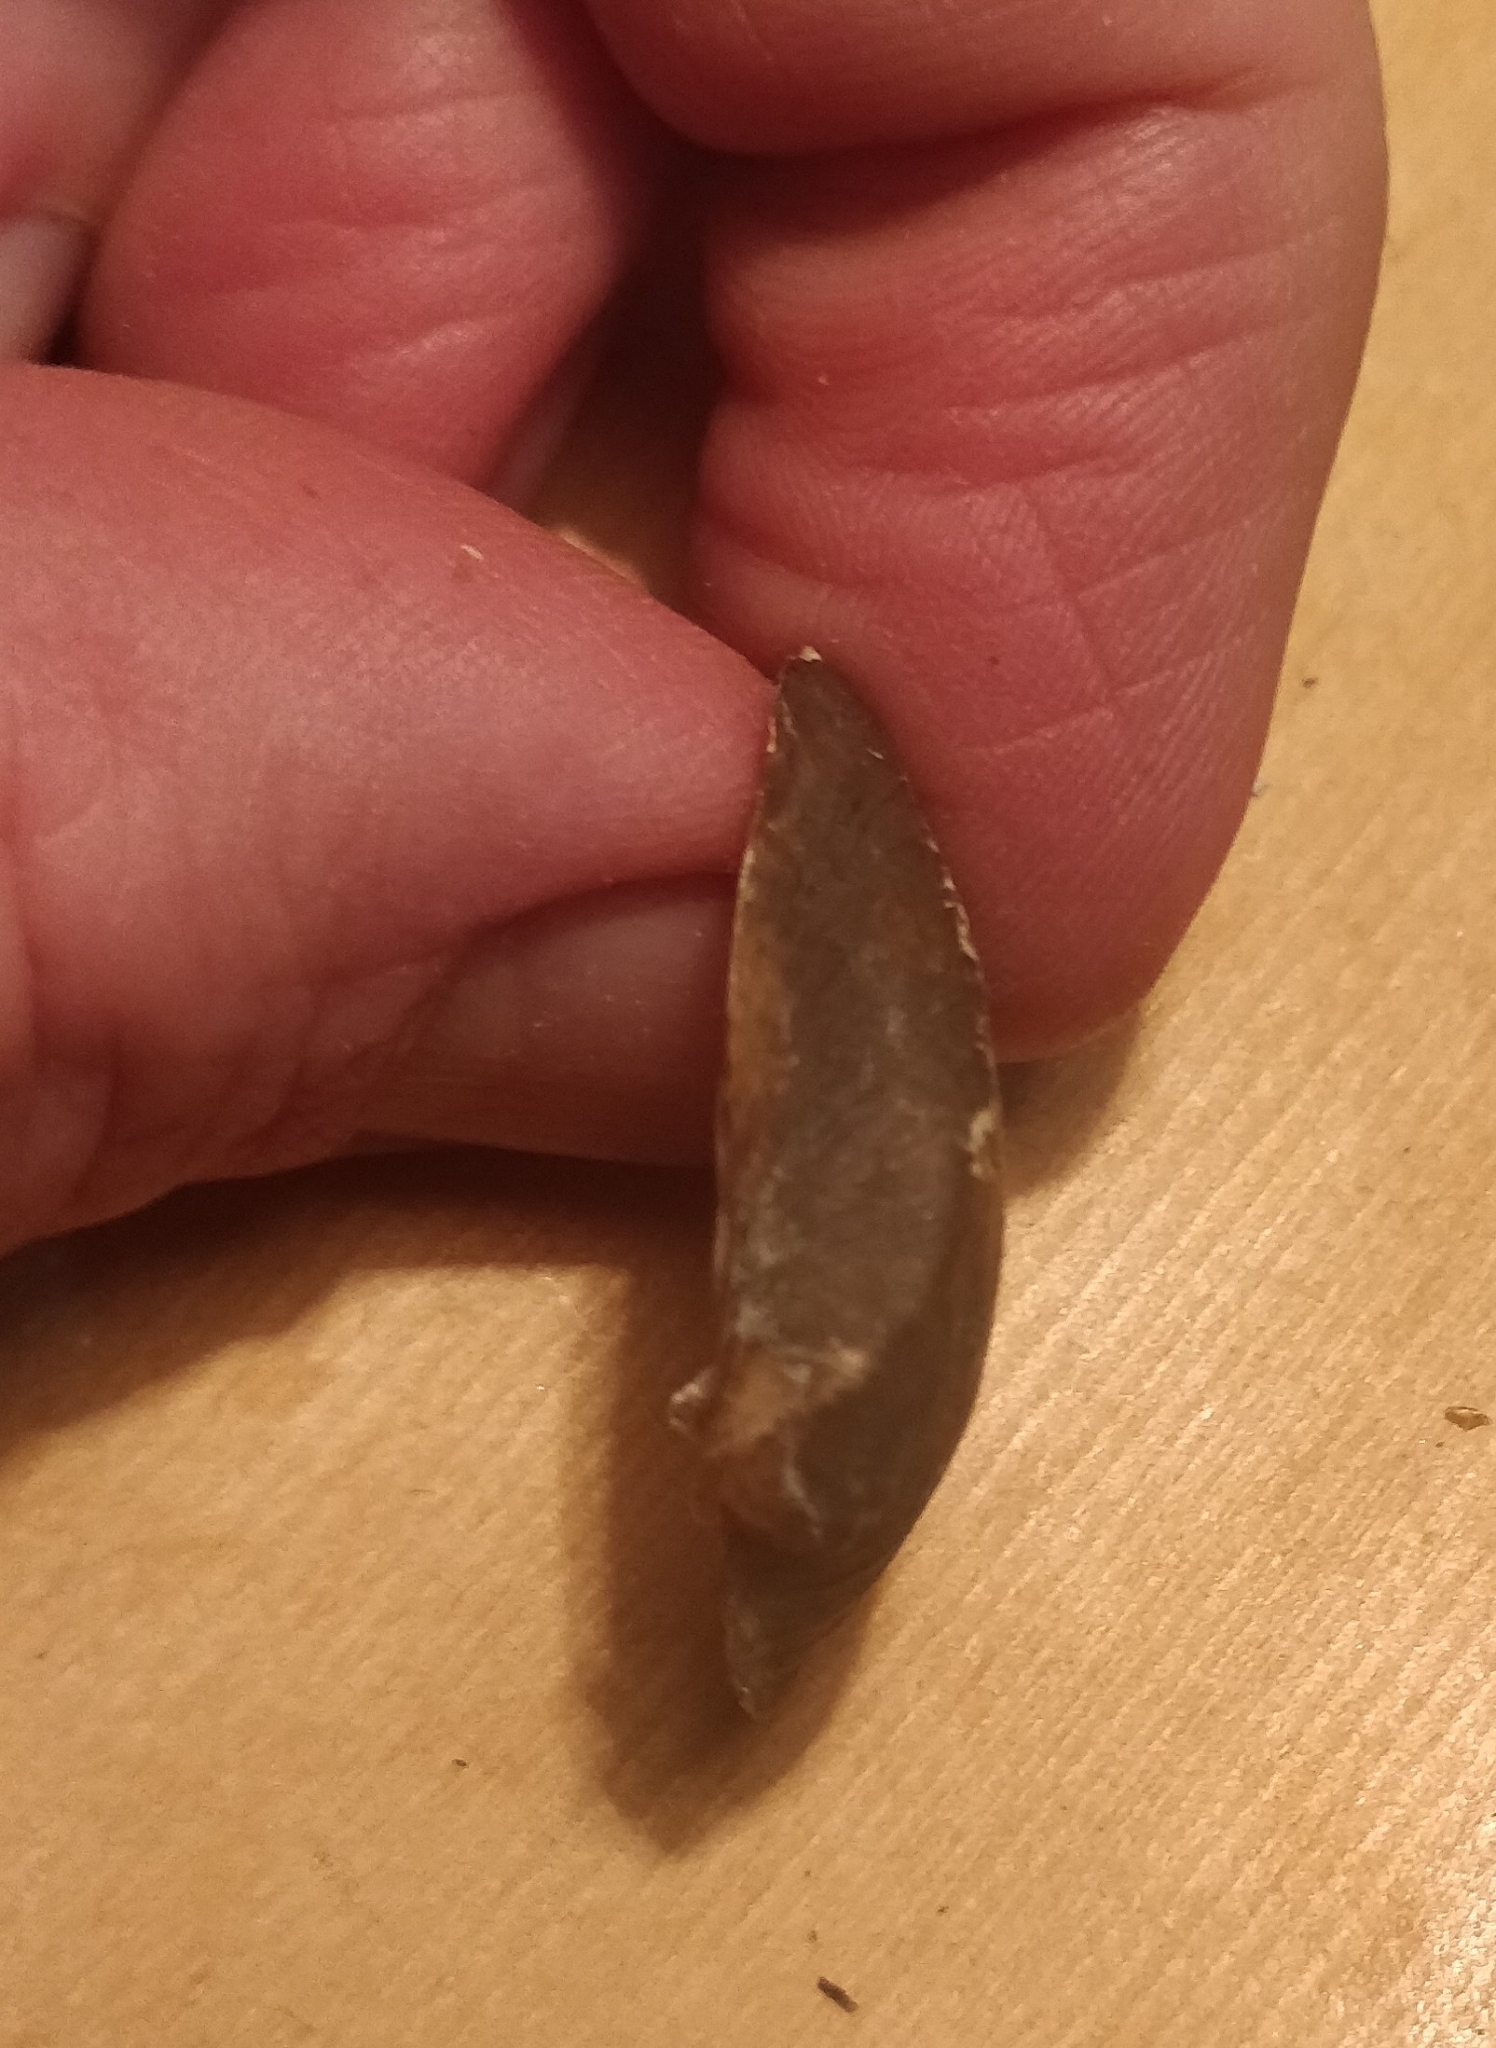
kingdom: Animalia
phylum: Mollusca
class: Bivalvia
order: Unionida
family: Unionidae
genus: Truncilla
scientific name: Truncilla truncata
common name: Deertoe
